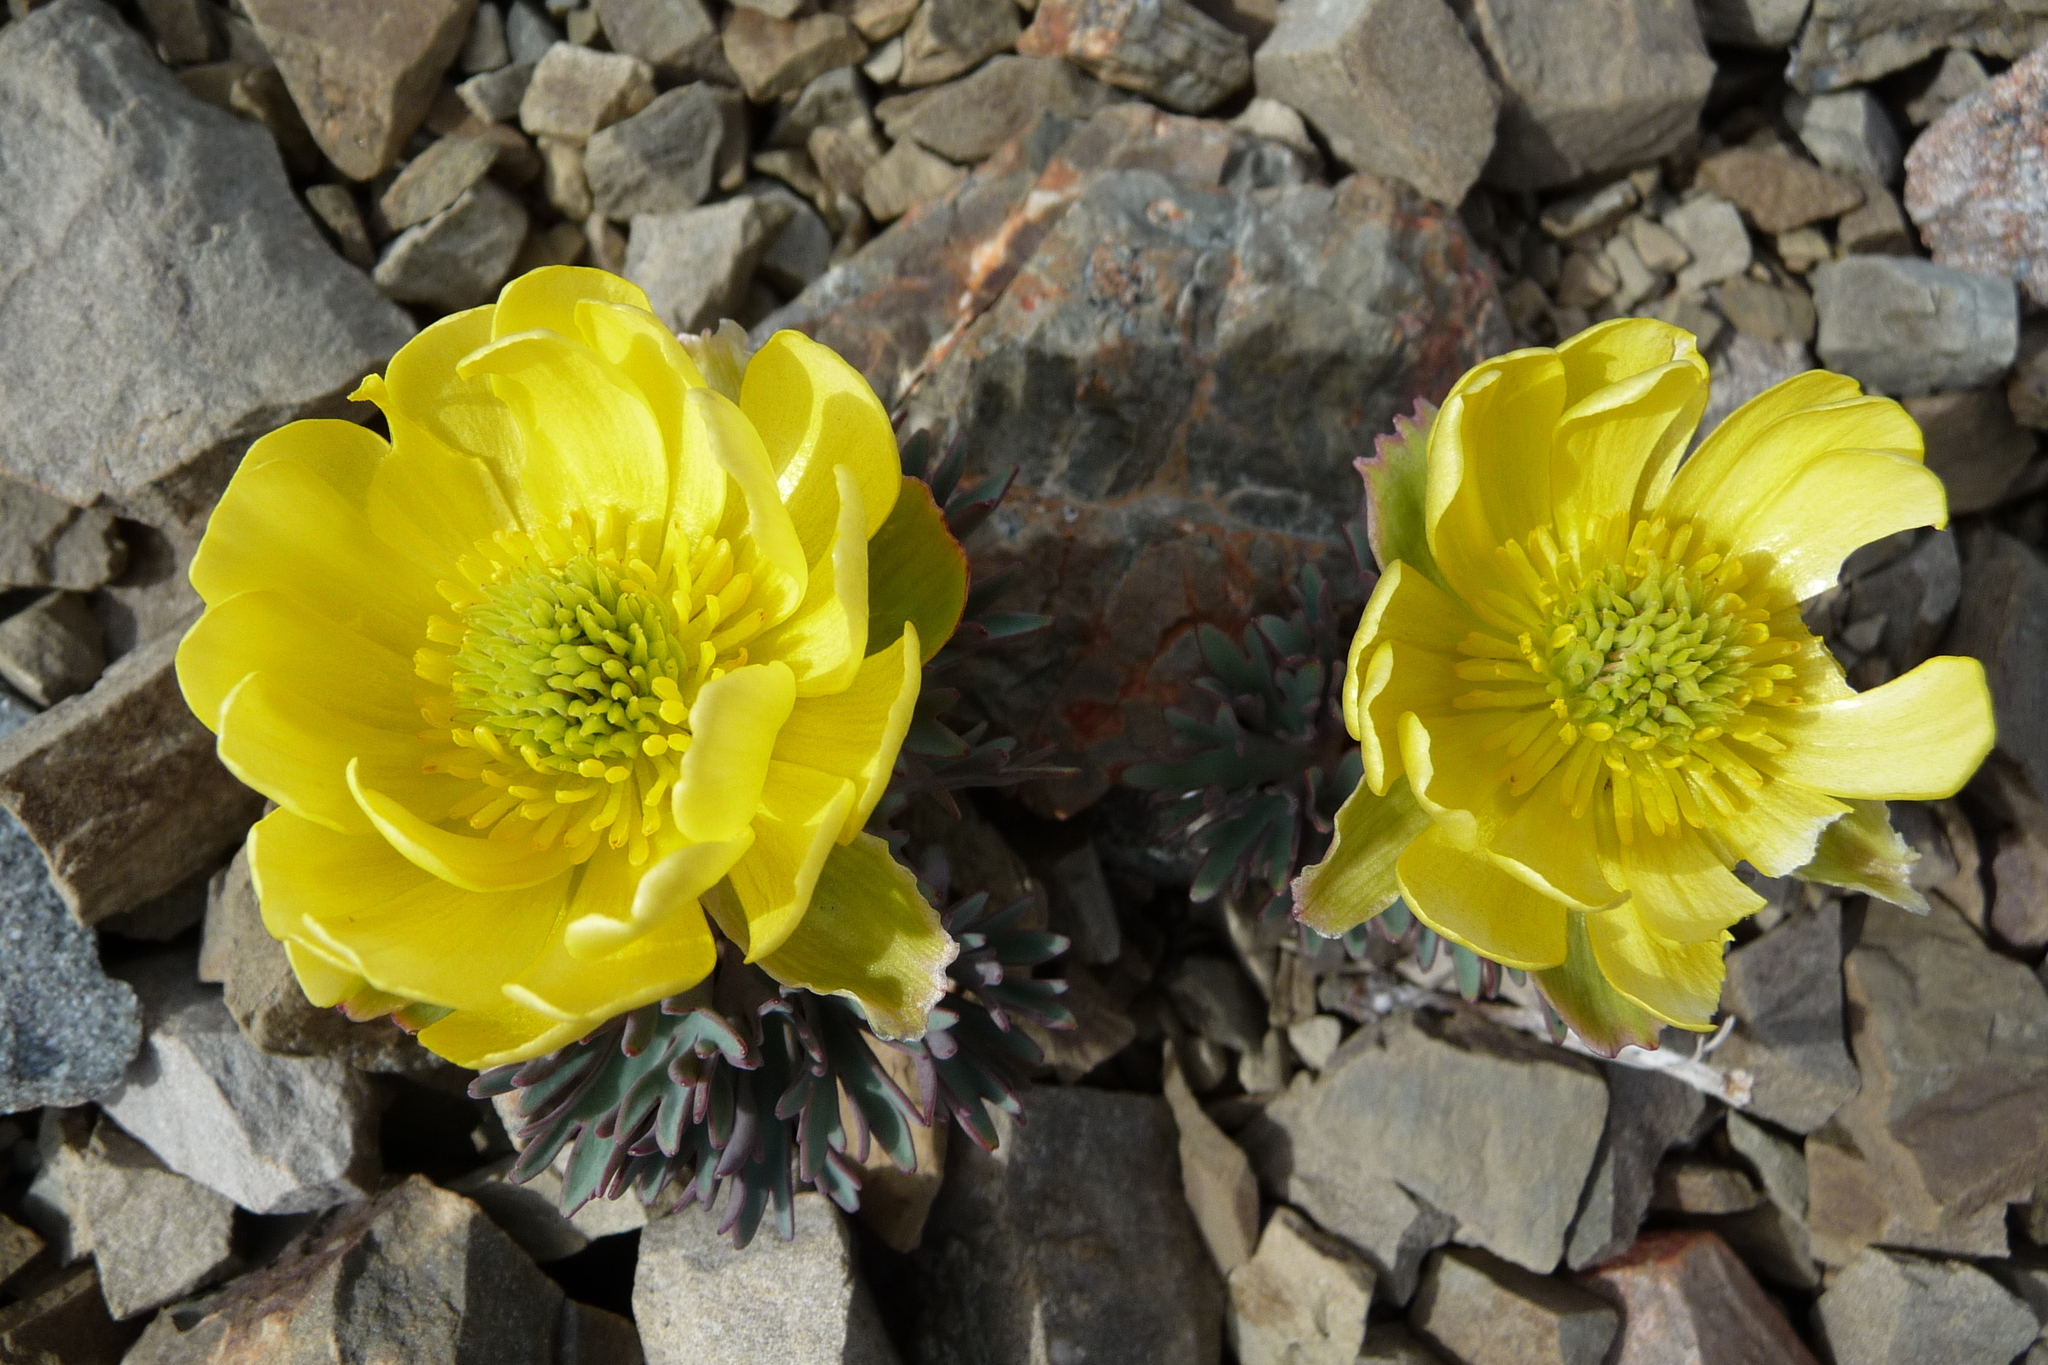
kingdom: Plantae
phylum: Tracheophyta
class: Magnoliopsida
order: Ranunculales
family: Ranunculaceae
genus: Ranunculus
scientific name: Ranunculus haastii
